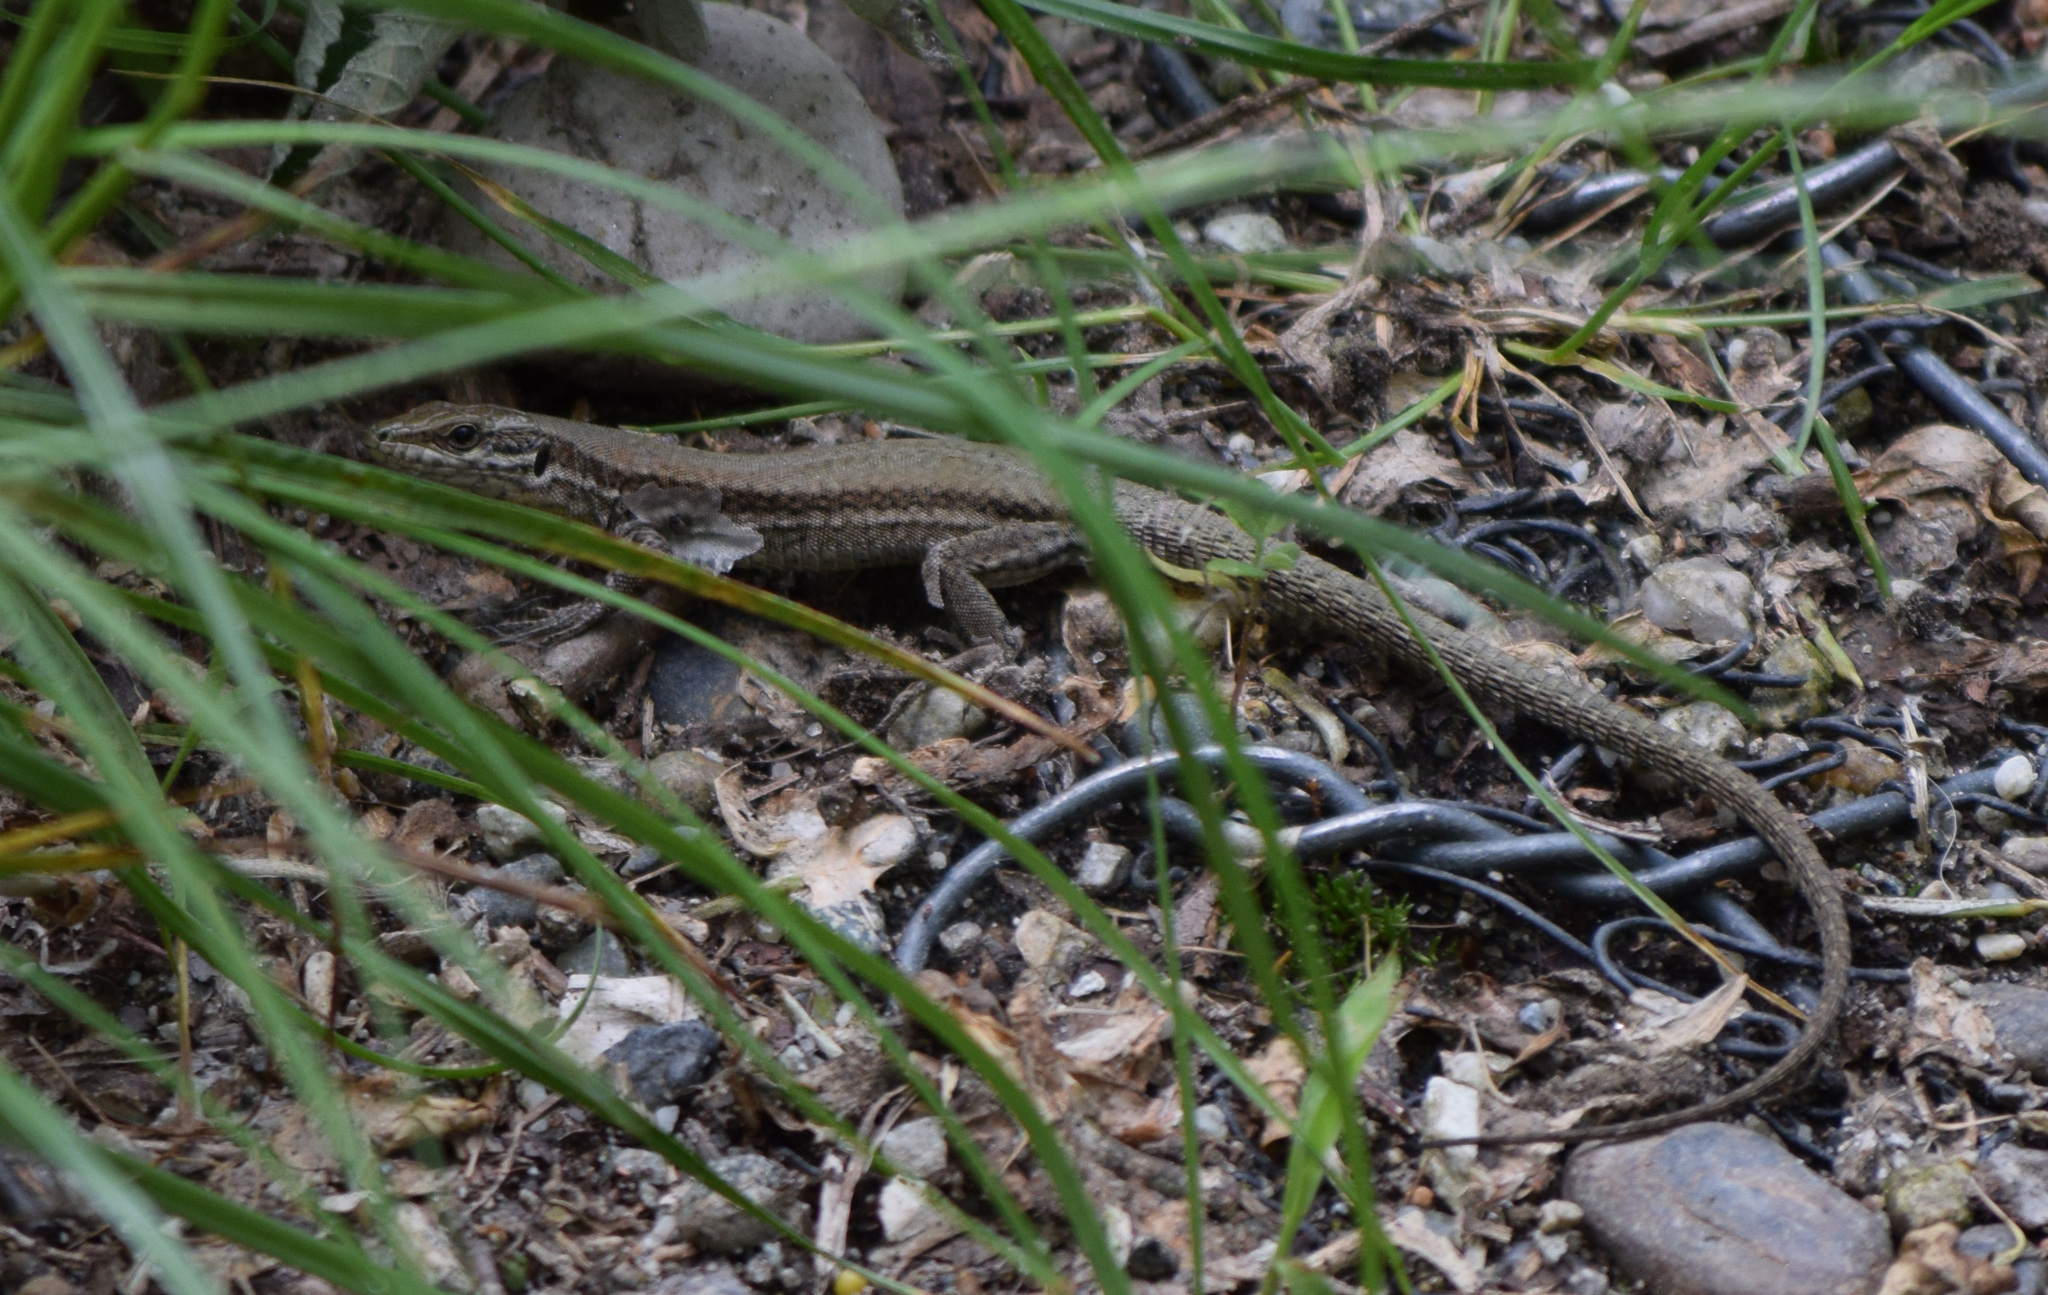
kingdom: Animalia
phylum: Chordata
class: Squamata
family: Lacertidae
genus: Podarcis
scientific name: Podarcis muralis
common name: Common wall lizard
